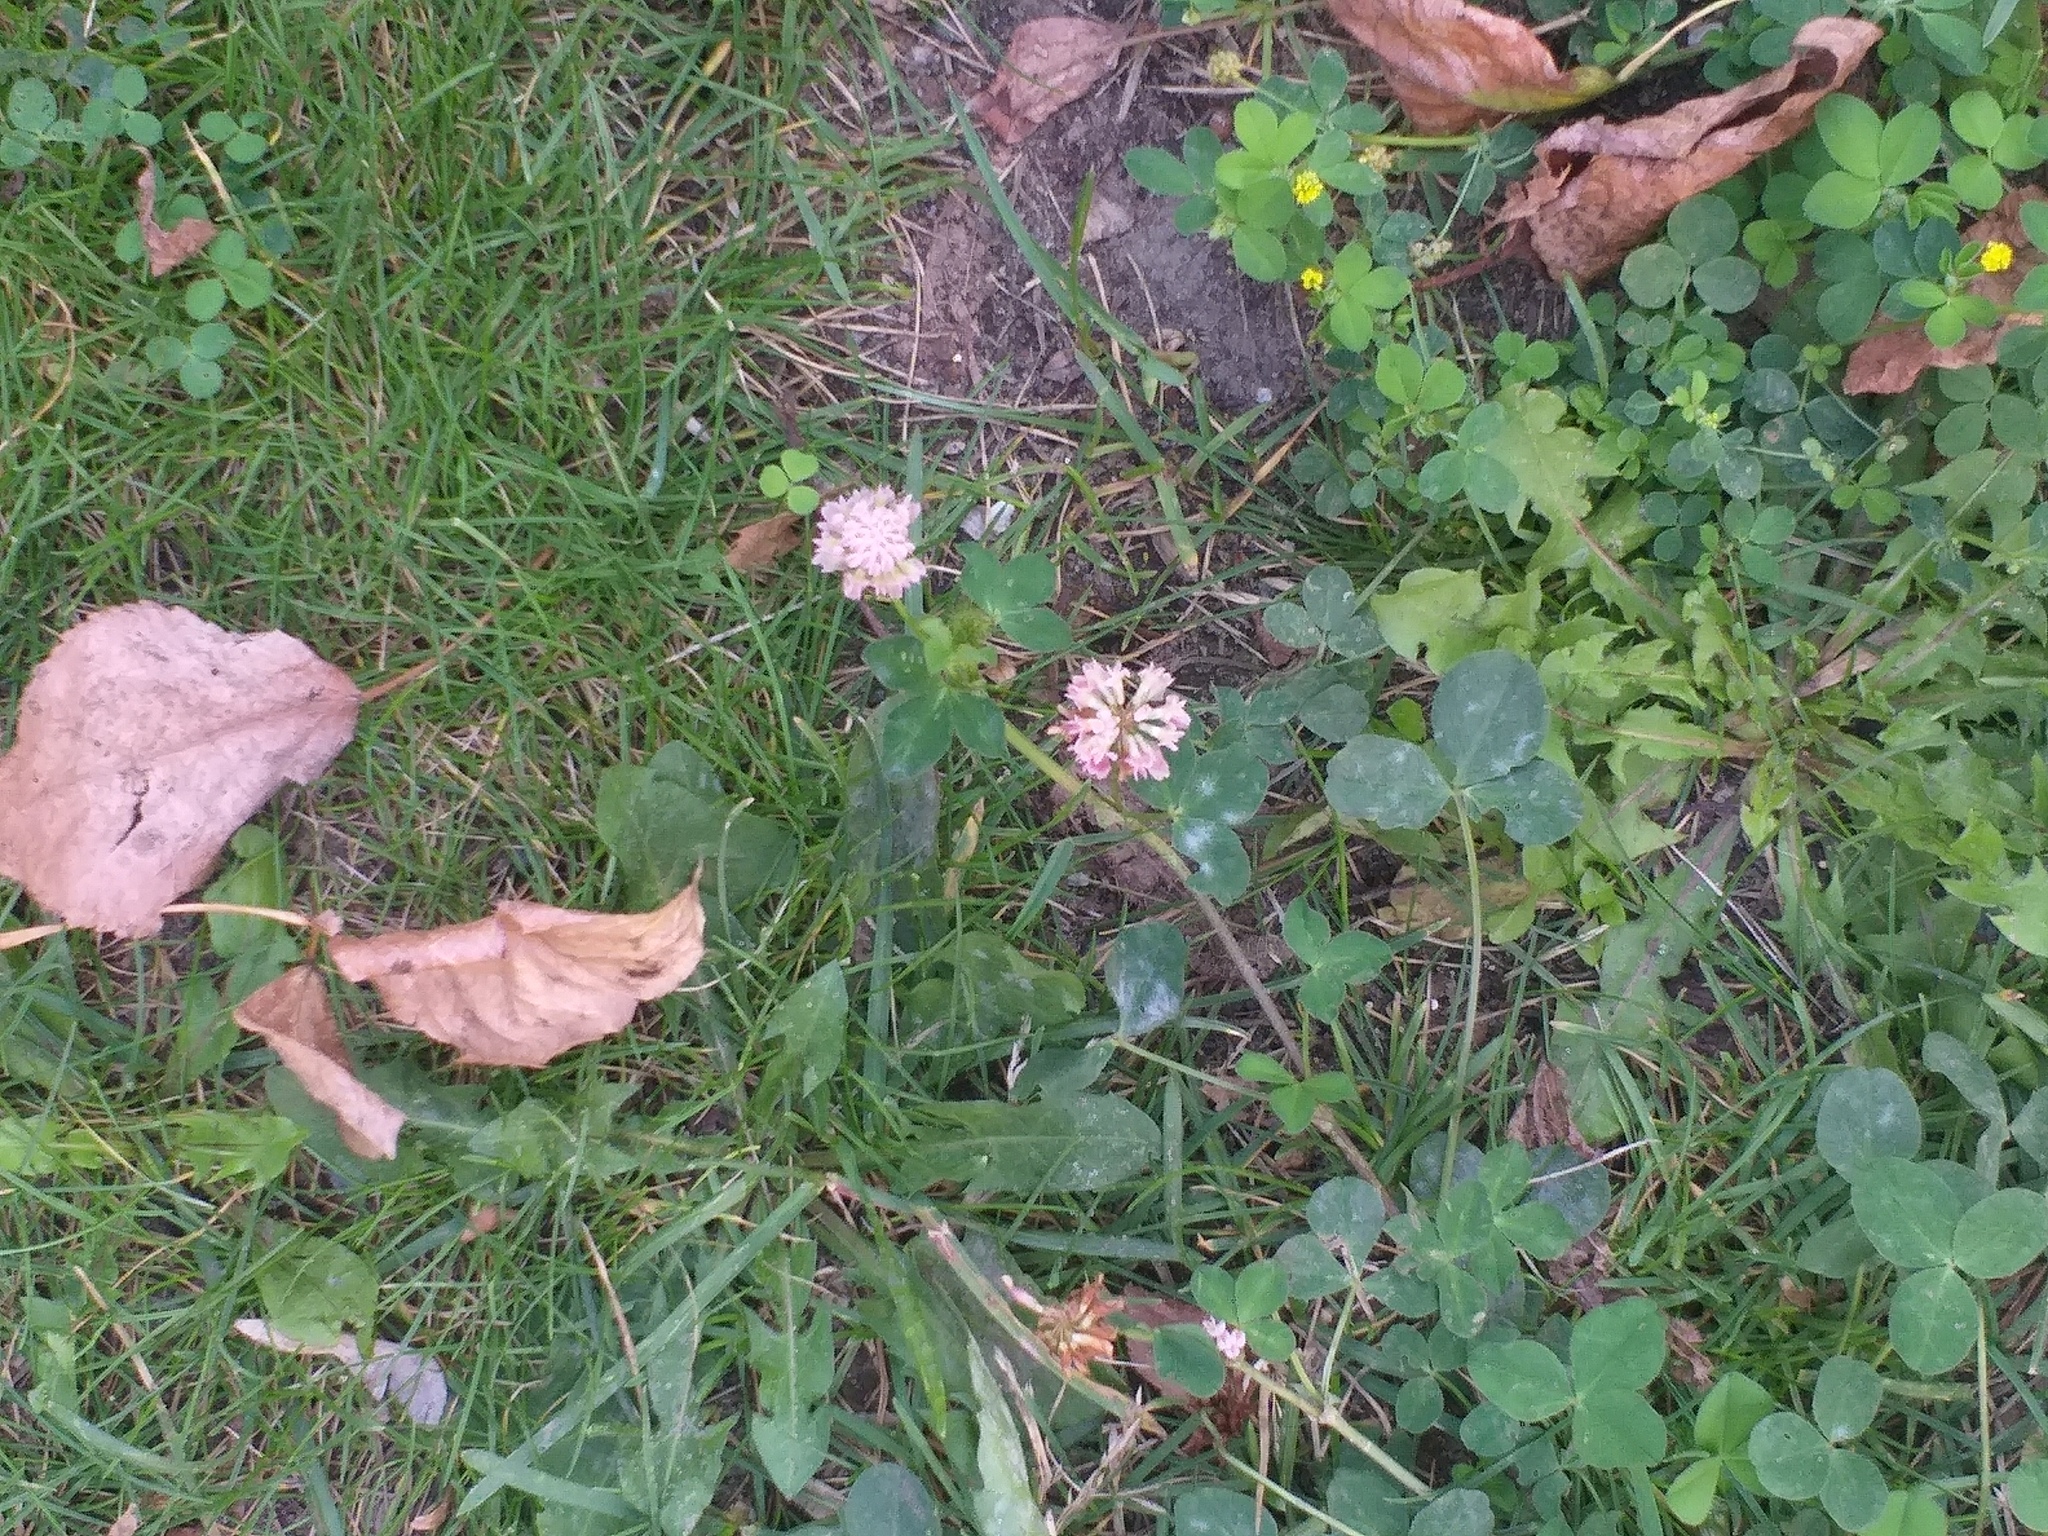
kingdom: Plantae
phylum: Tracheophyta
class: Magnoliopsida
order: Fabales
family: Fabaceae
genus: Trifolium
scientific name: Trifolium hybridum
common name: Alsike clover
